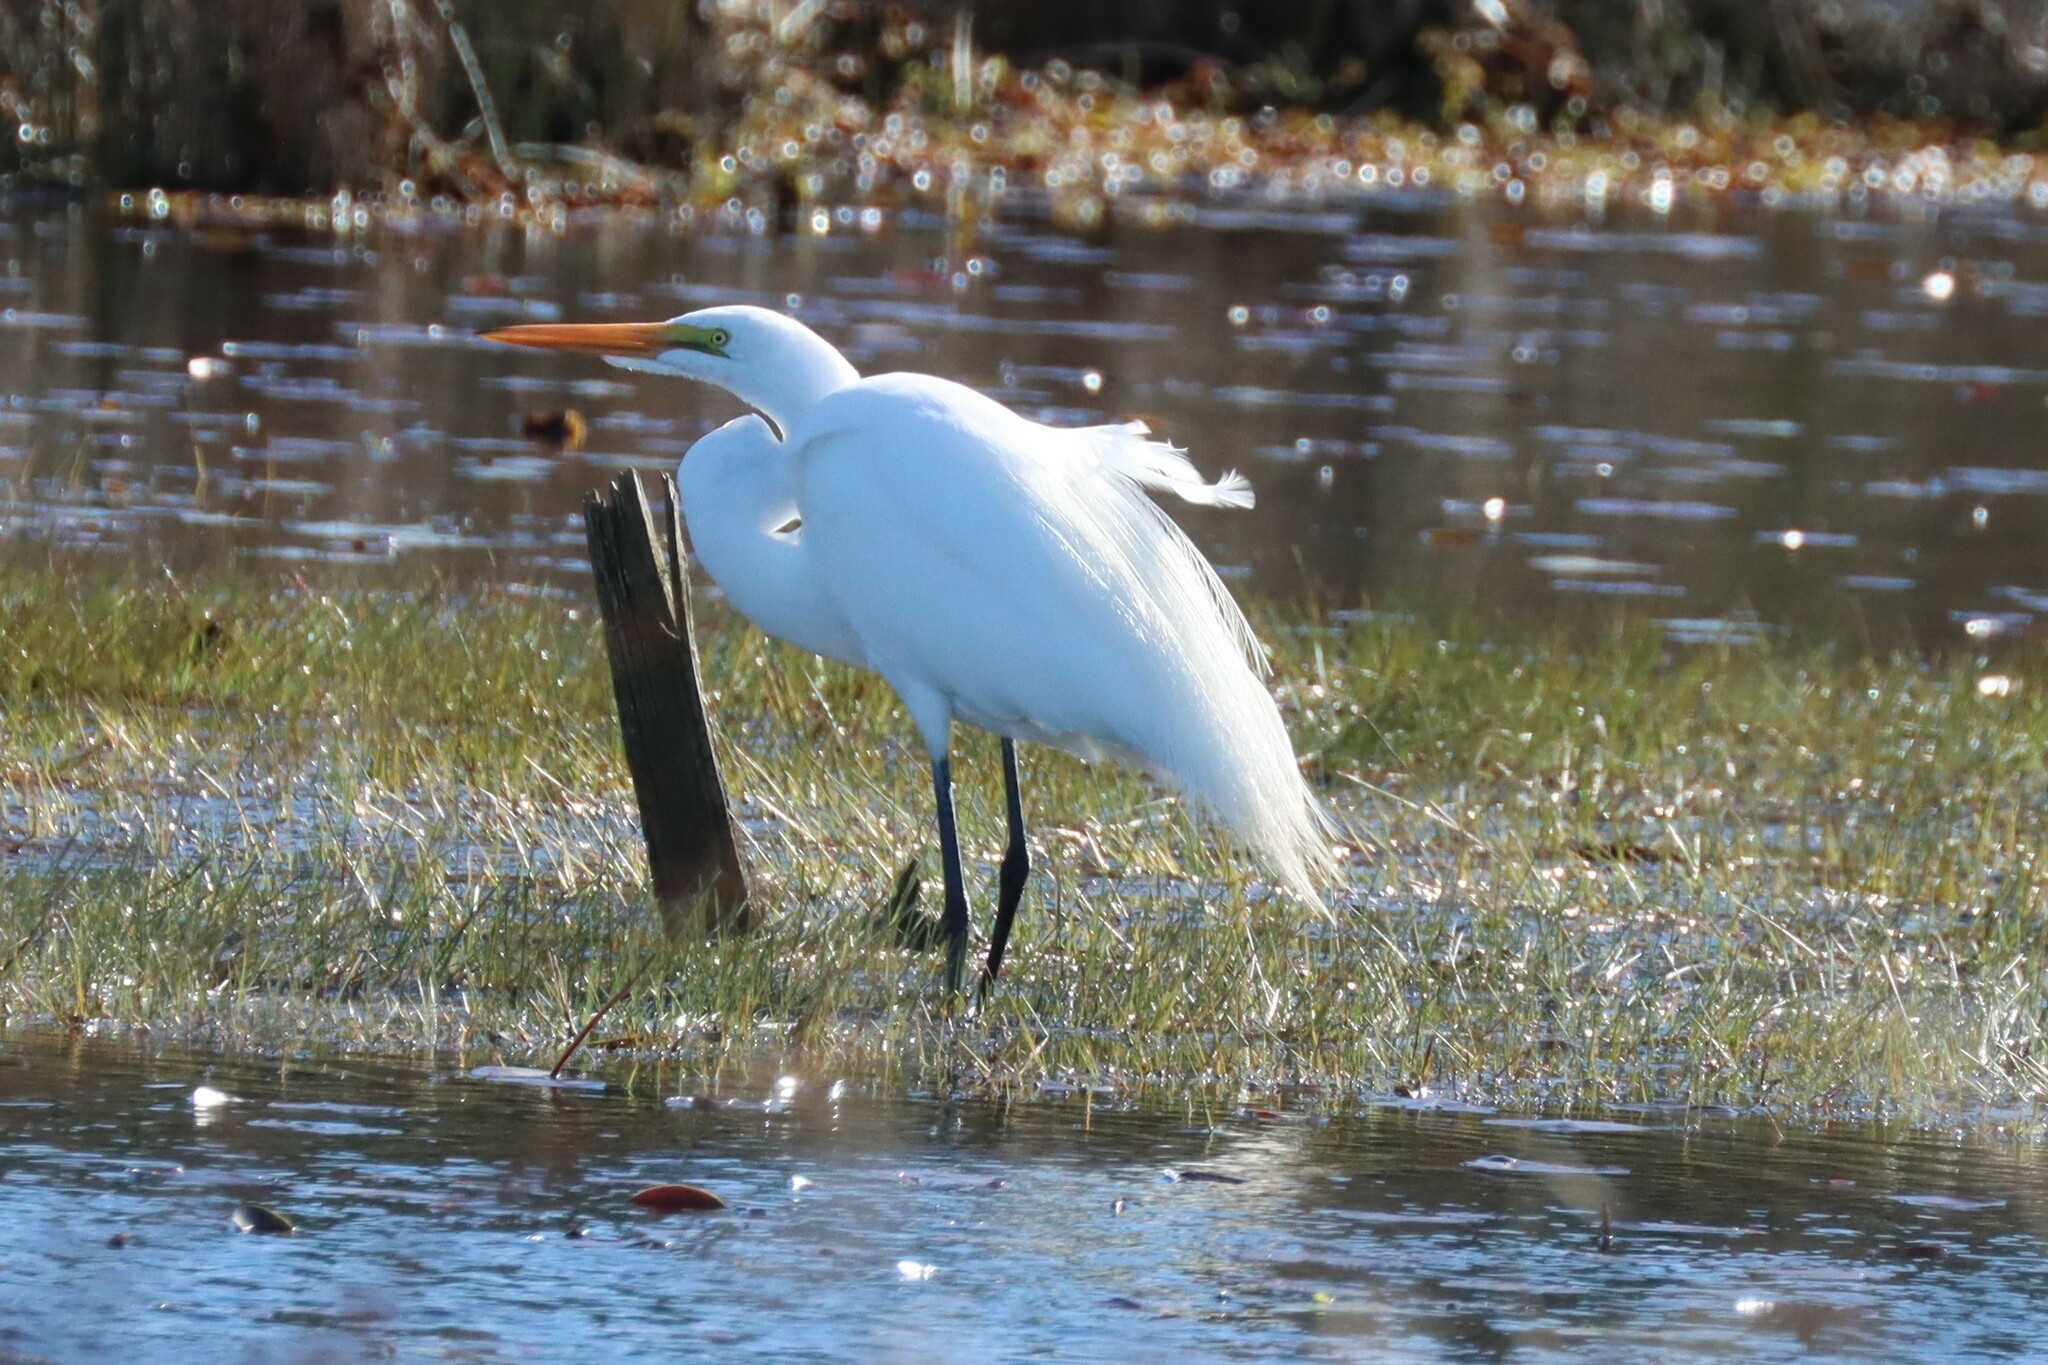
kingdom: Animalia
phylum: Chordata
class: Aves
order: Pelecaniformes
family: Ardeidae
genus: Ardea
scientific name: Ardea alba
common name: Great egret
